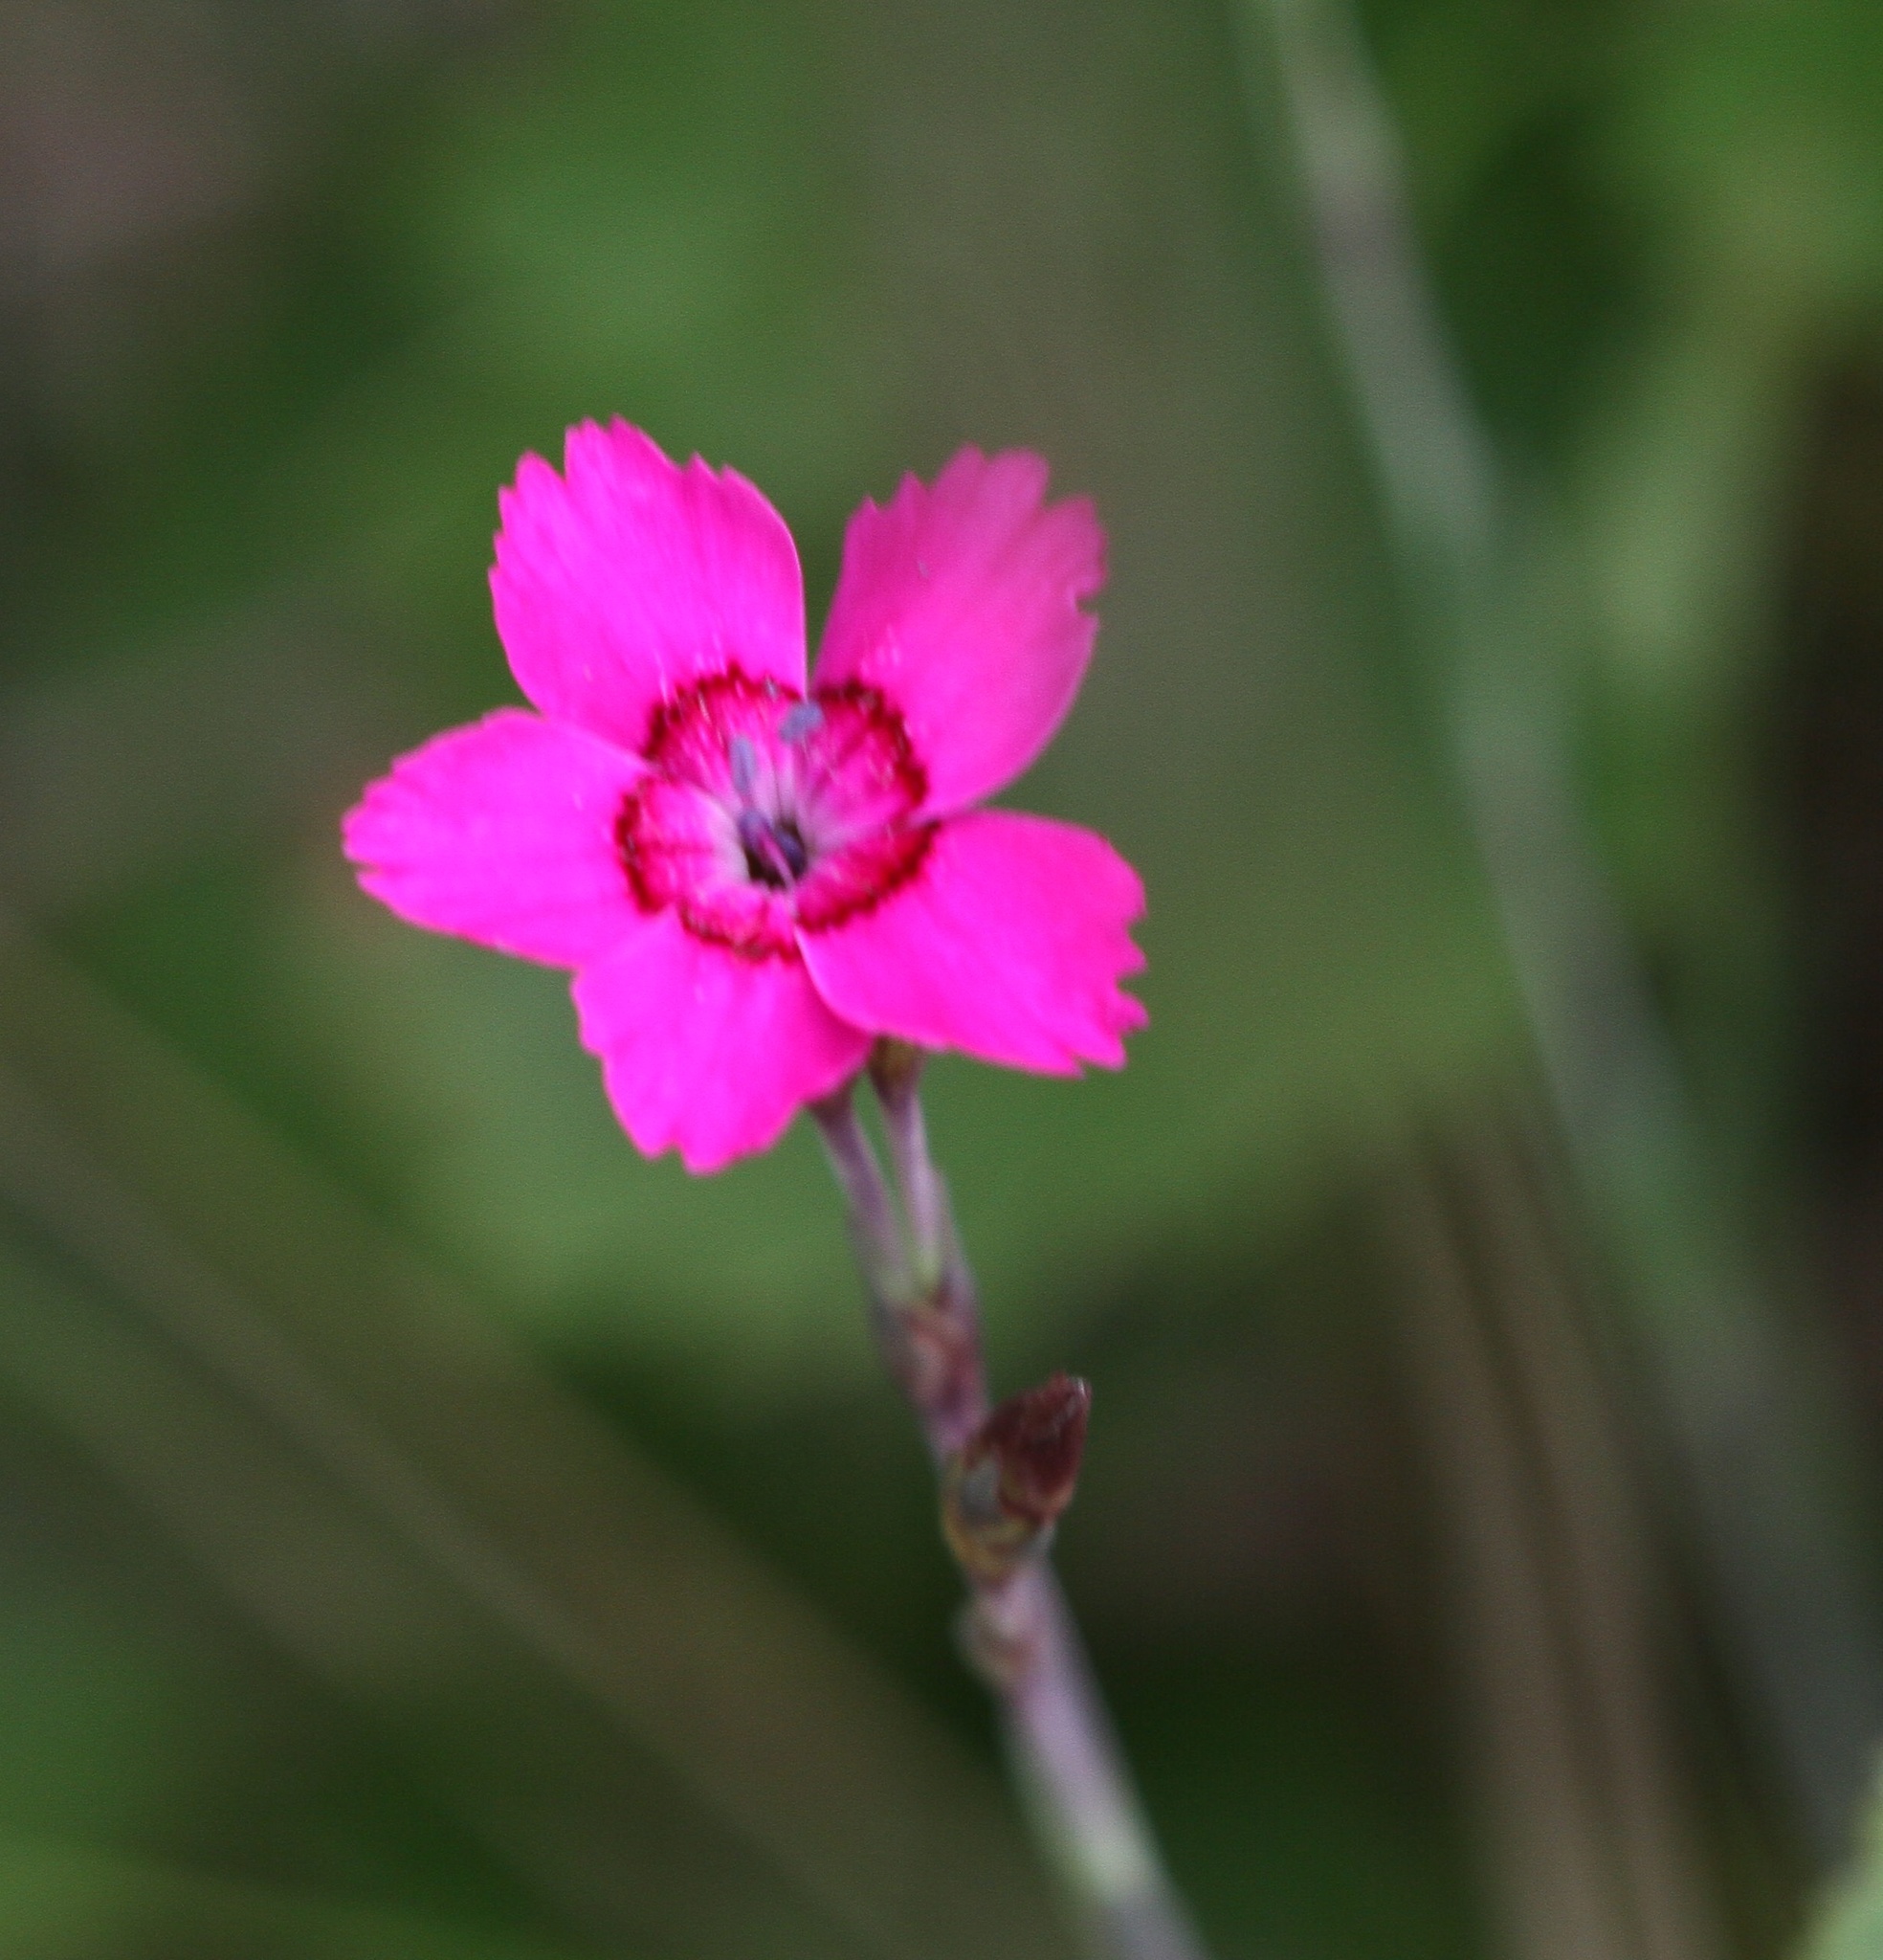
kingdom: Plantae
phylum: Tracheophyta
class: Magnoliopsida
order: Caryophyllales
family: Caryophyllaceae
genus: Dianthus
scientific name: Dianthus deltoides
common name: Maiden pink
